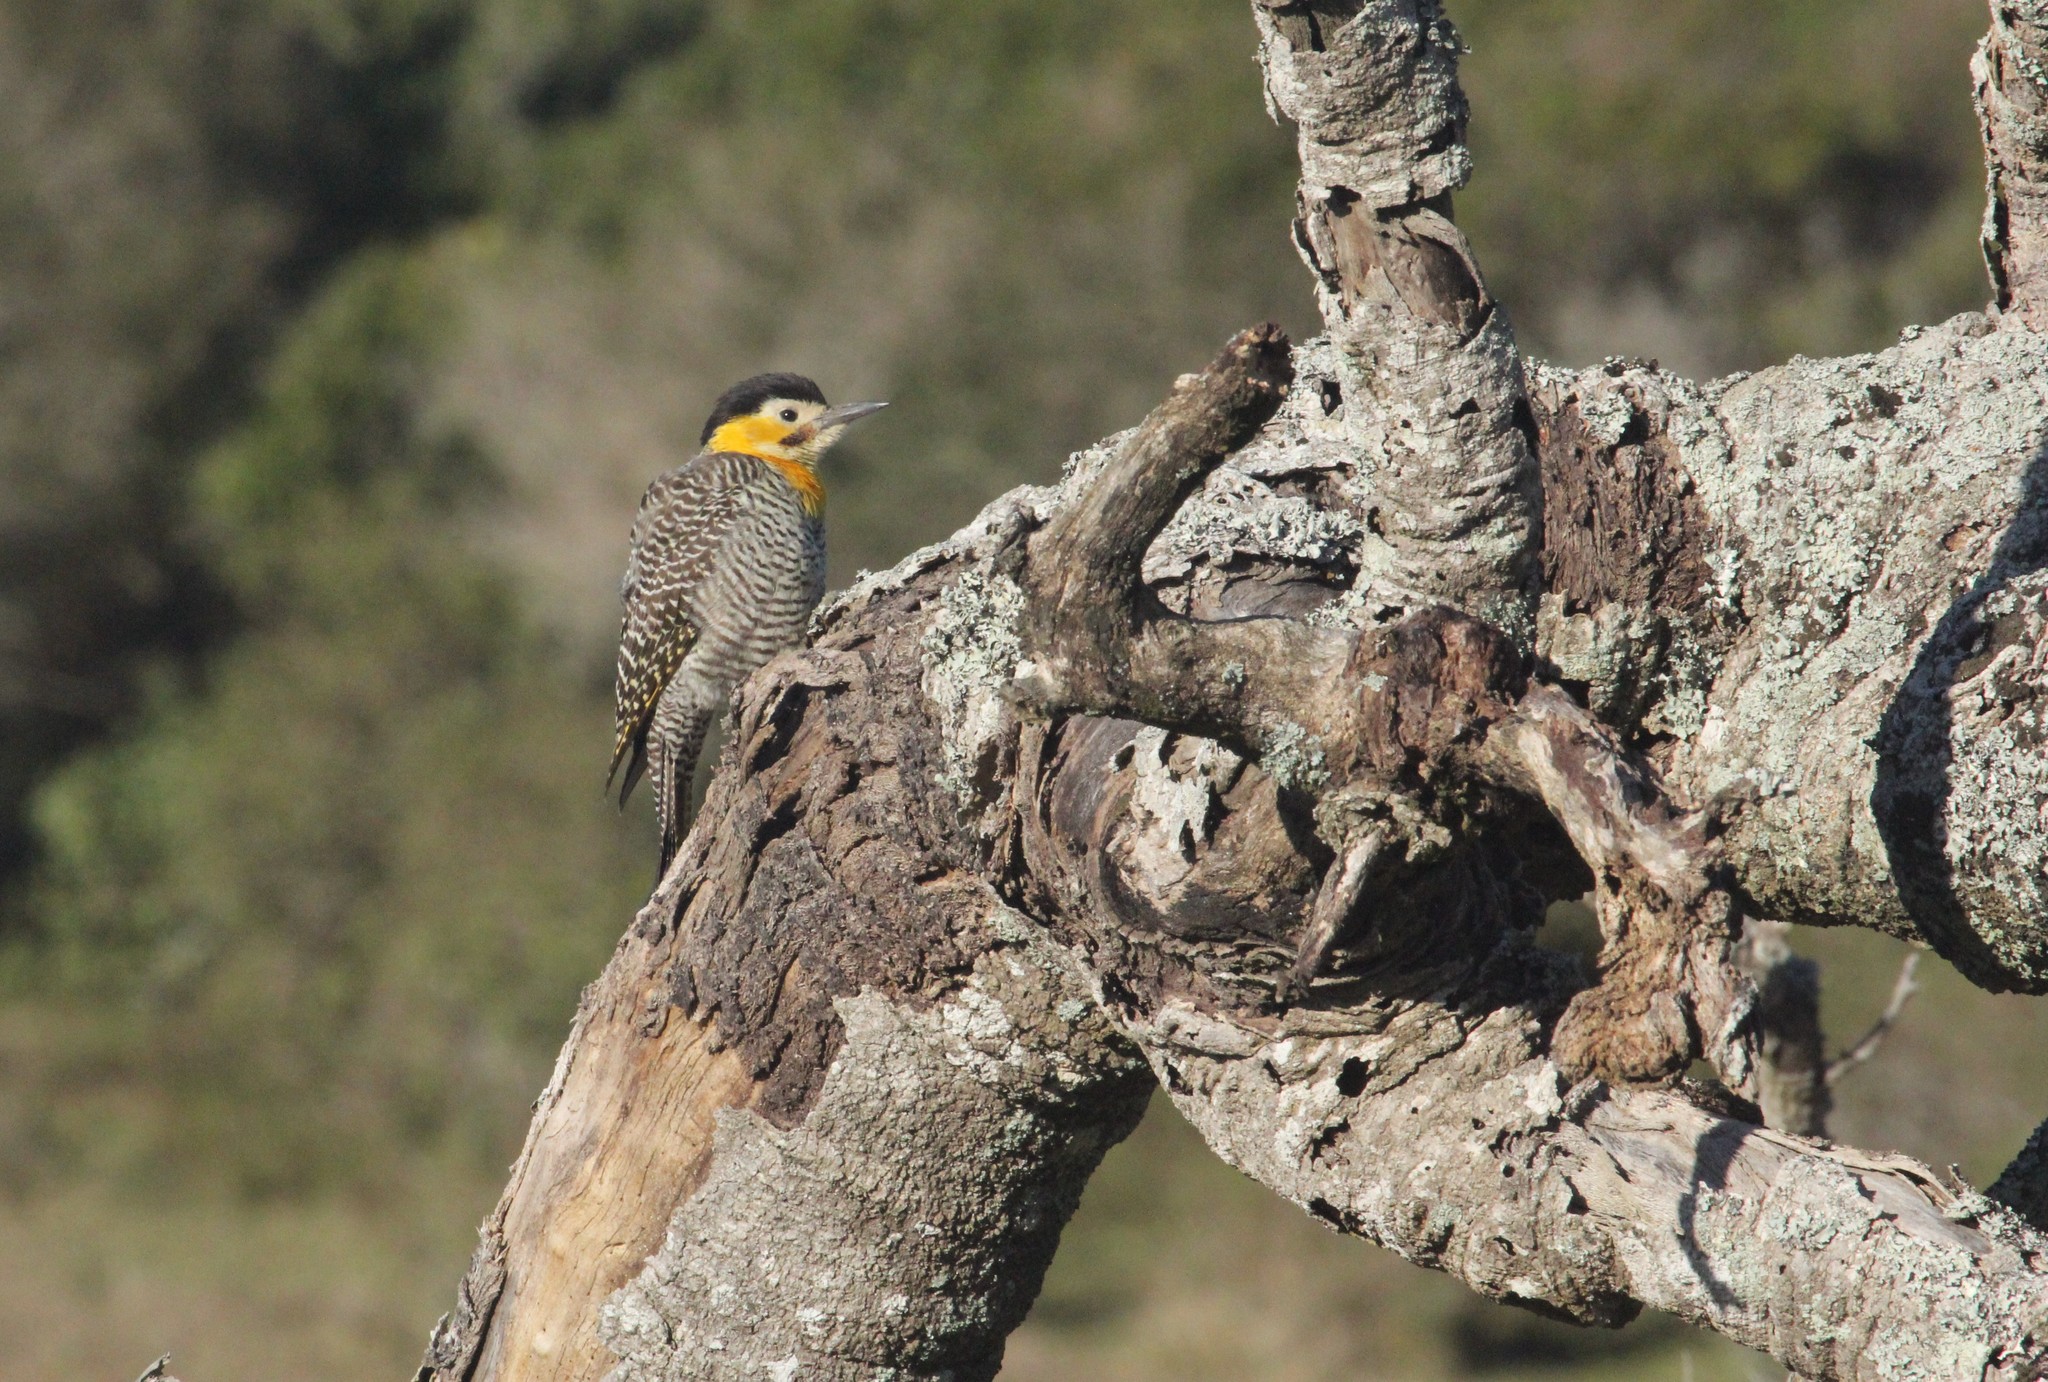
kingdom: Animalia
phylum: Chordata
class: Aves
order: Piciformes
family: Picidae
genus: Colaptes
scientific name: Colaptes campestris
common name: Campo flicker
